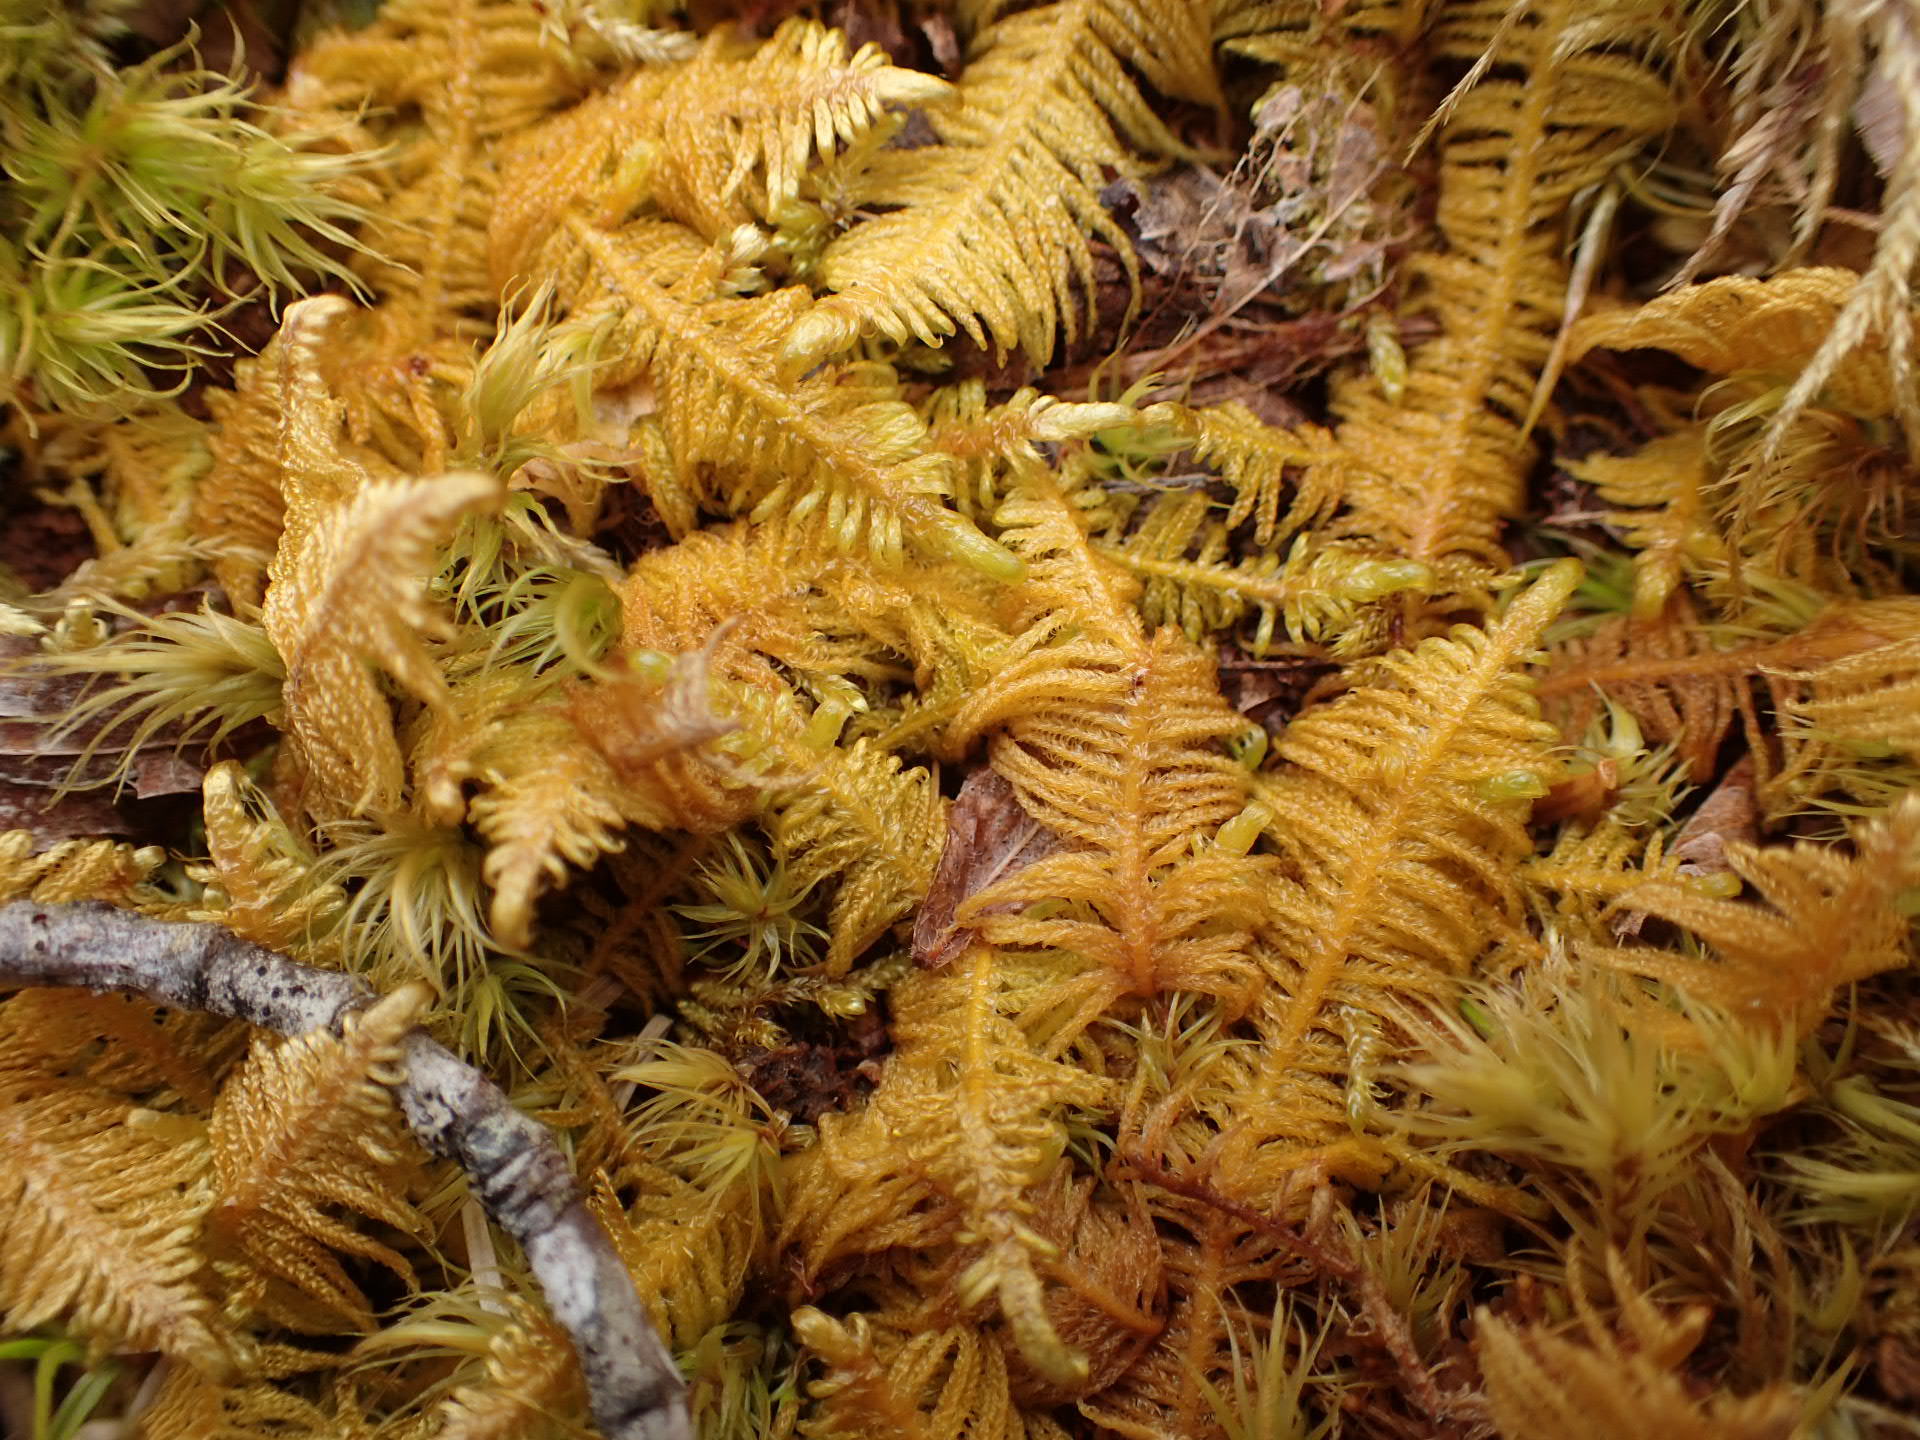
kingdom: Plantae
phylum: Bryophyta
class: Bryopsida
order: Hypnales
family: Pylaisiaceae
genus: Ptilium
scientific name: Ptilium crista-castrensis
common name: Knight's plume moss
